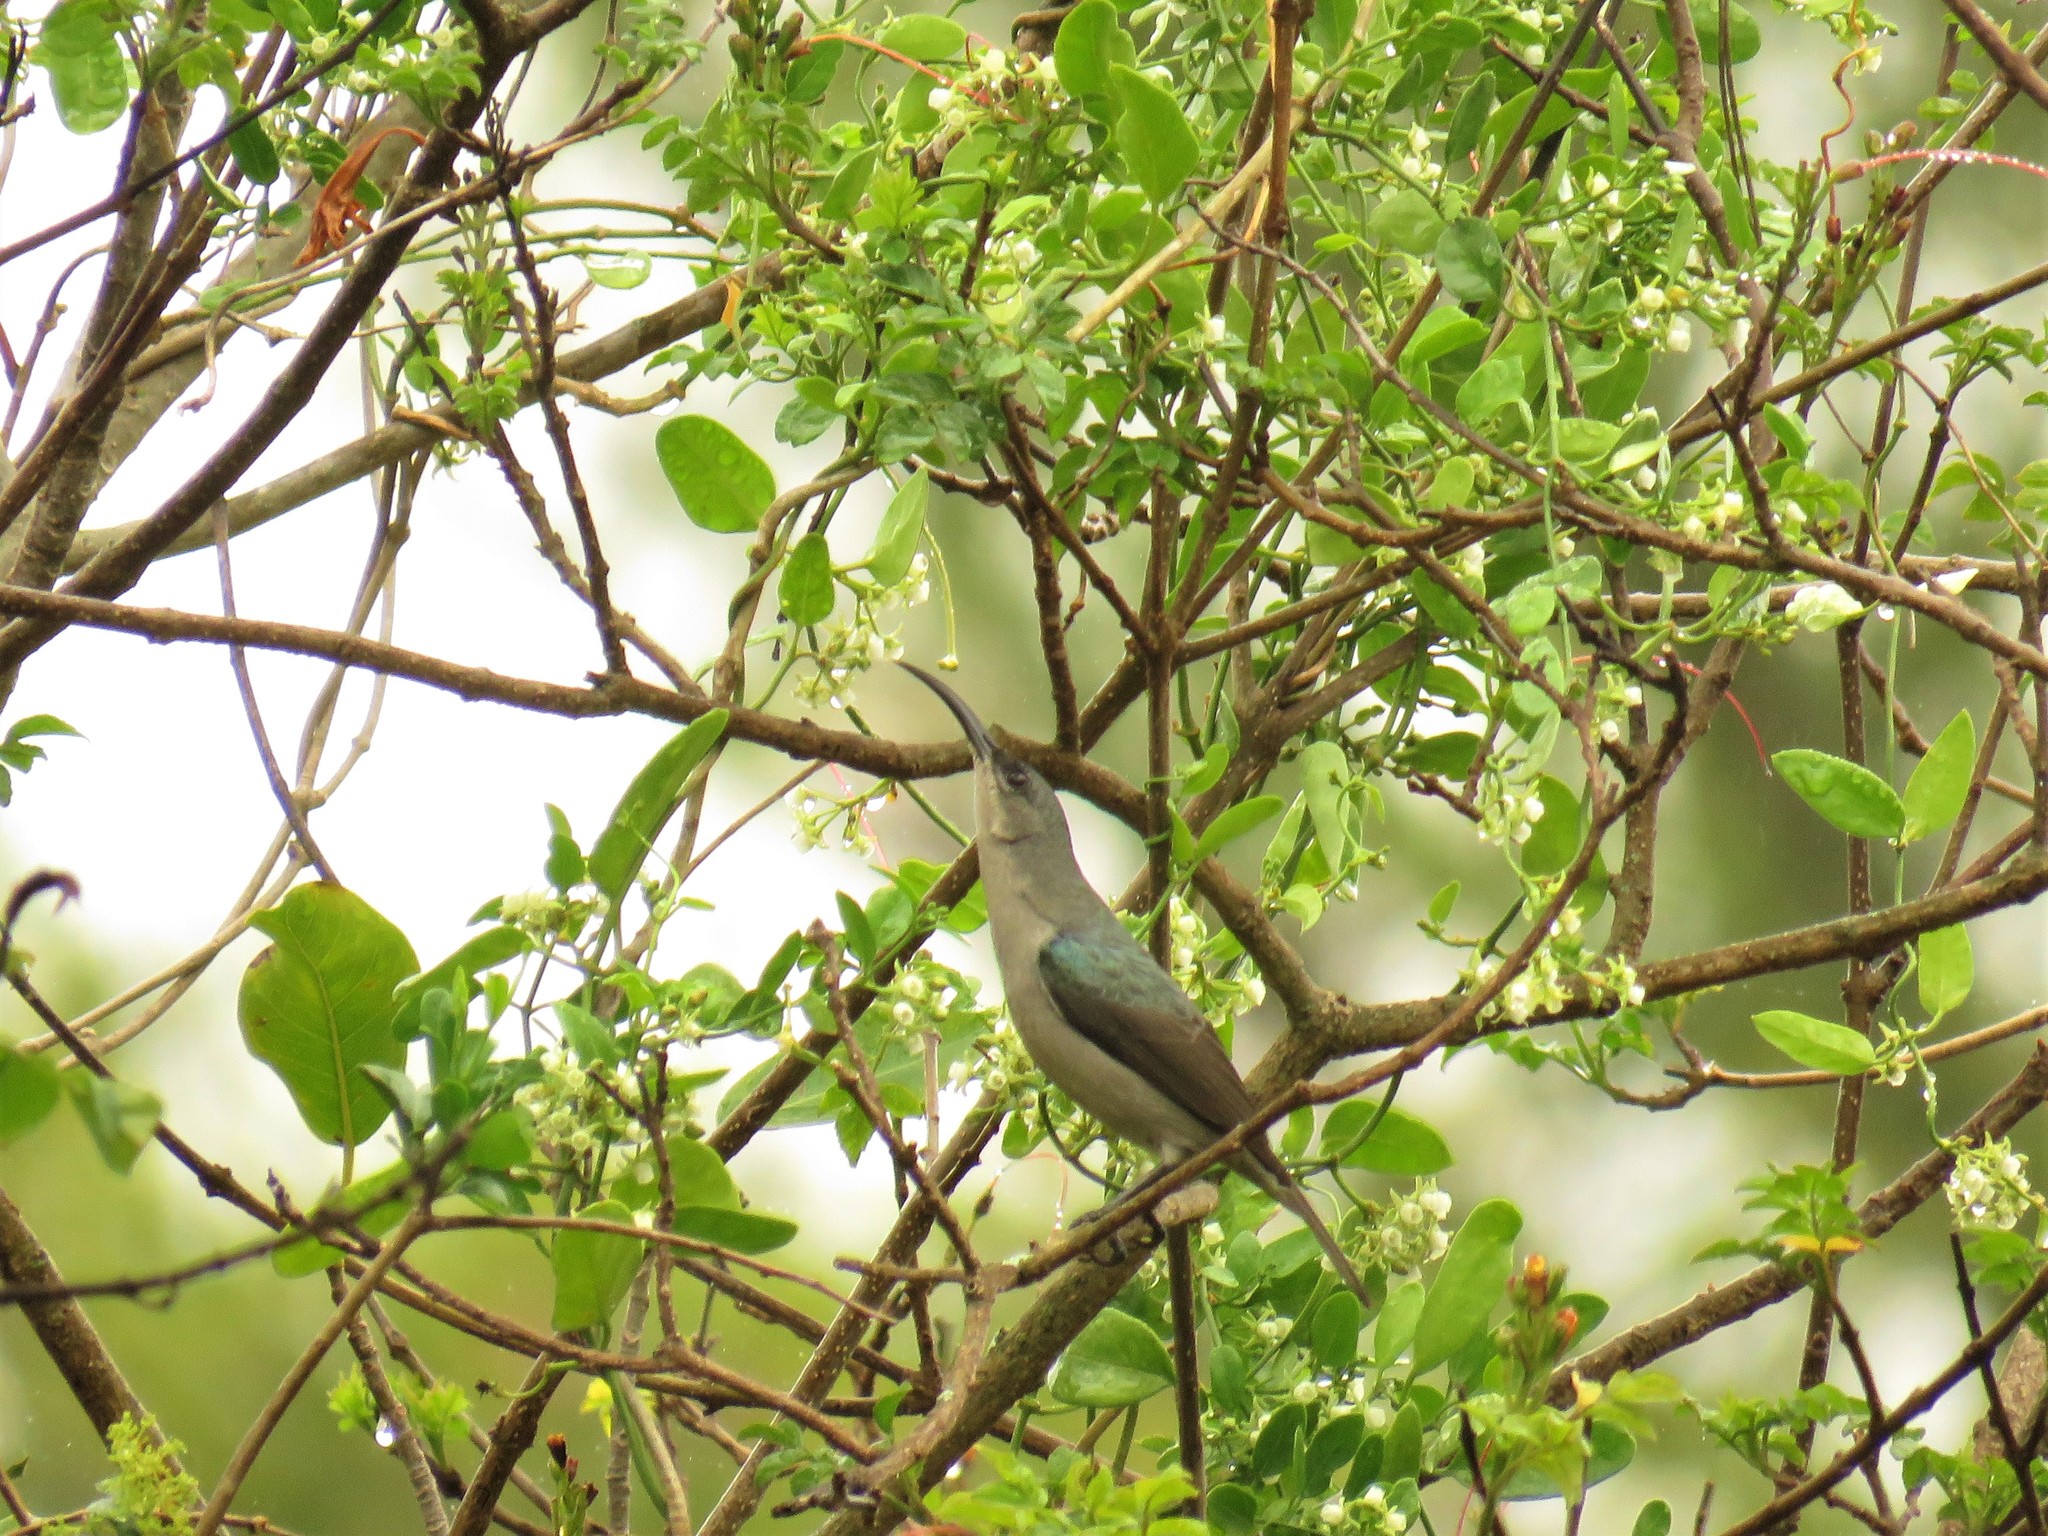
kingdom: Animalia
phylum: Chordata
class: Aves
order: Passeriformes
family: Nectariniidae
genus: Cyanomitra
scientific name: Cyanomitra veroxii
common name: Grey sunbird
